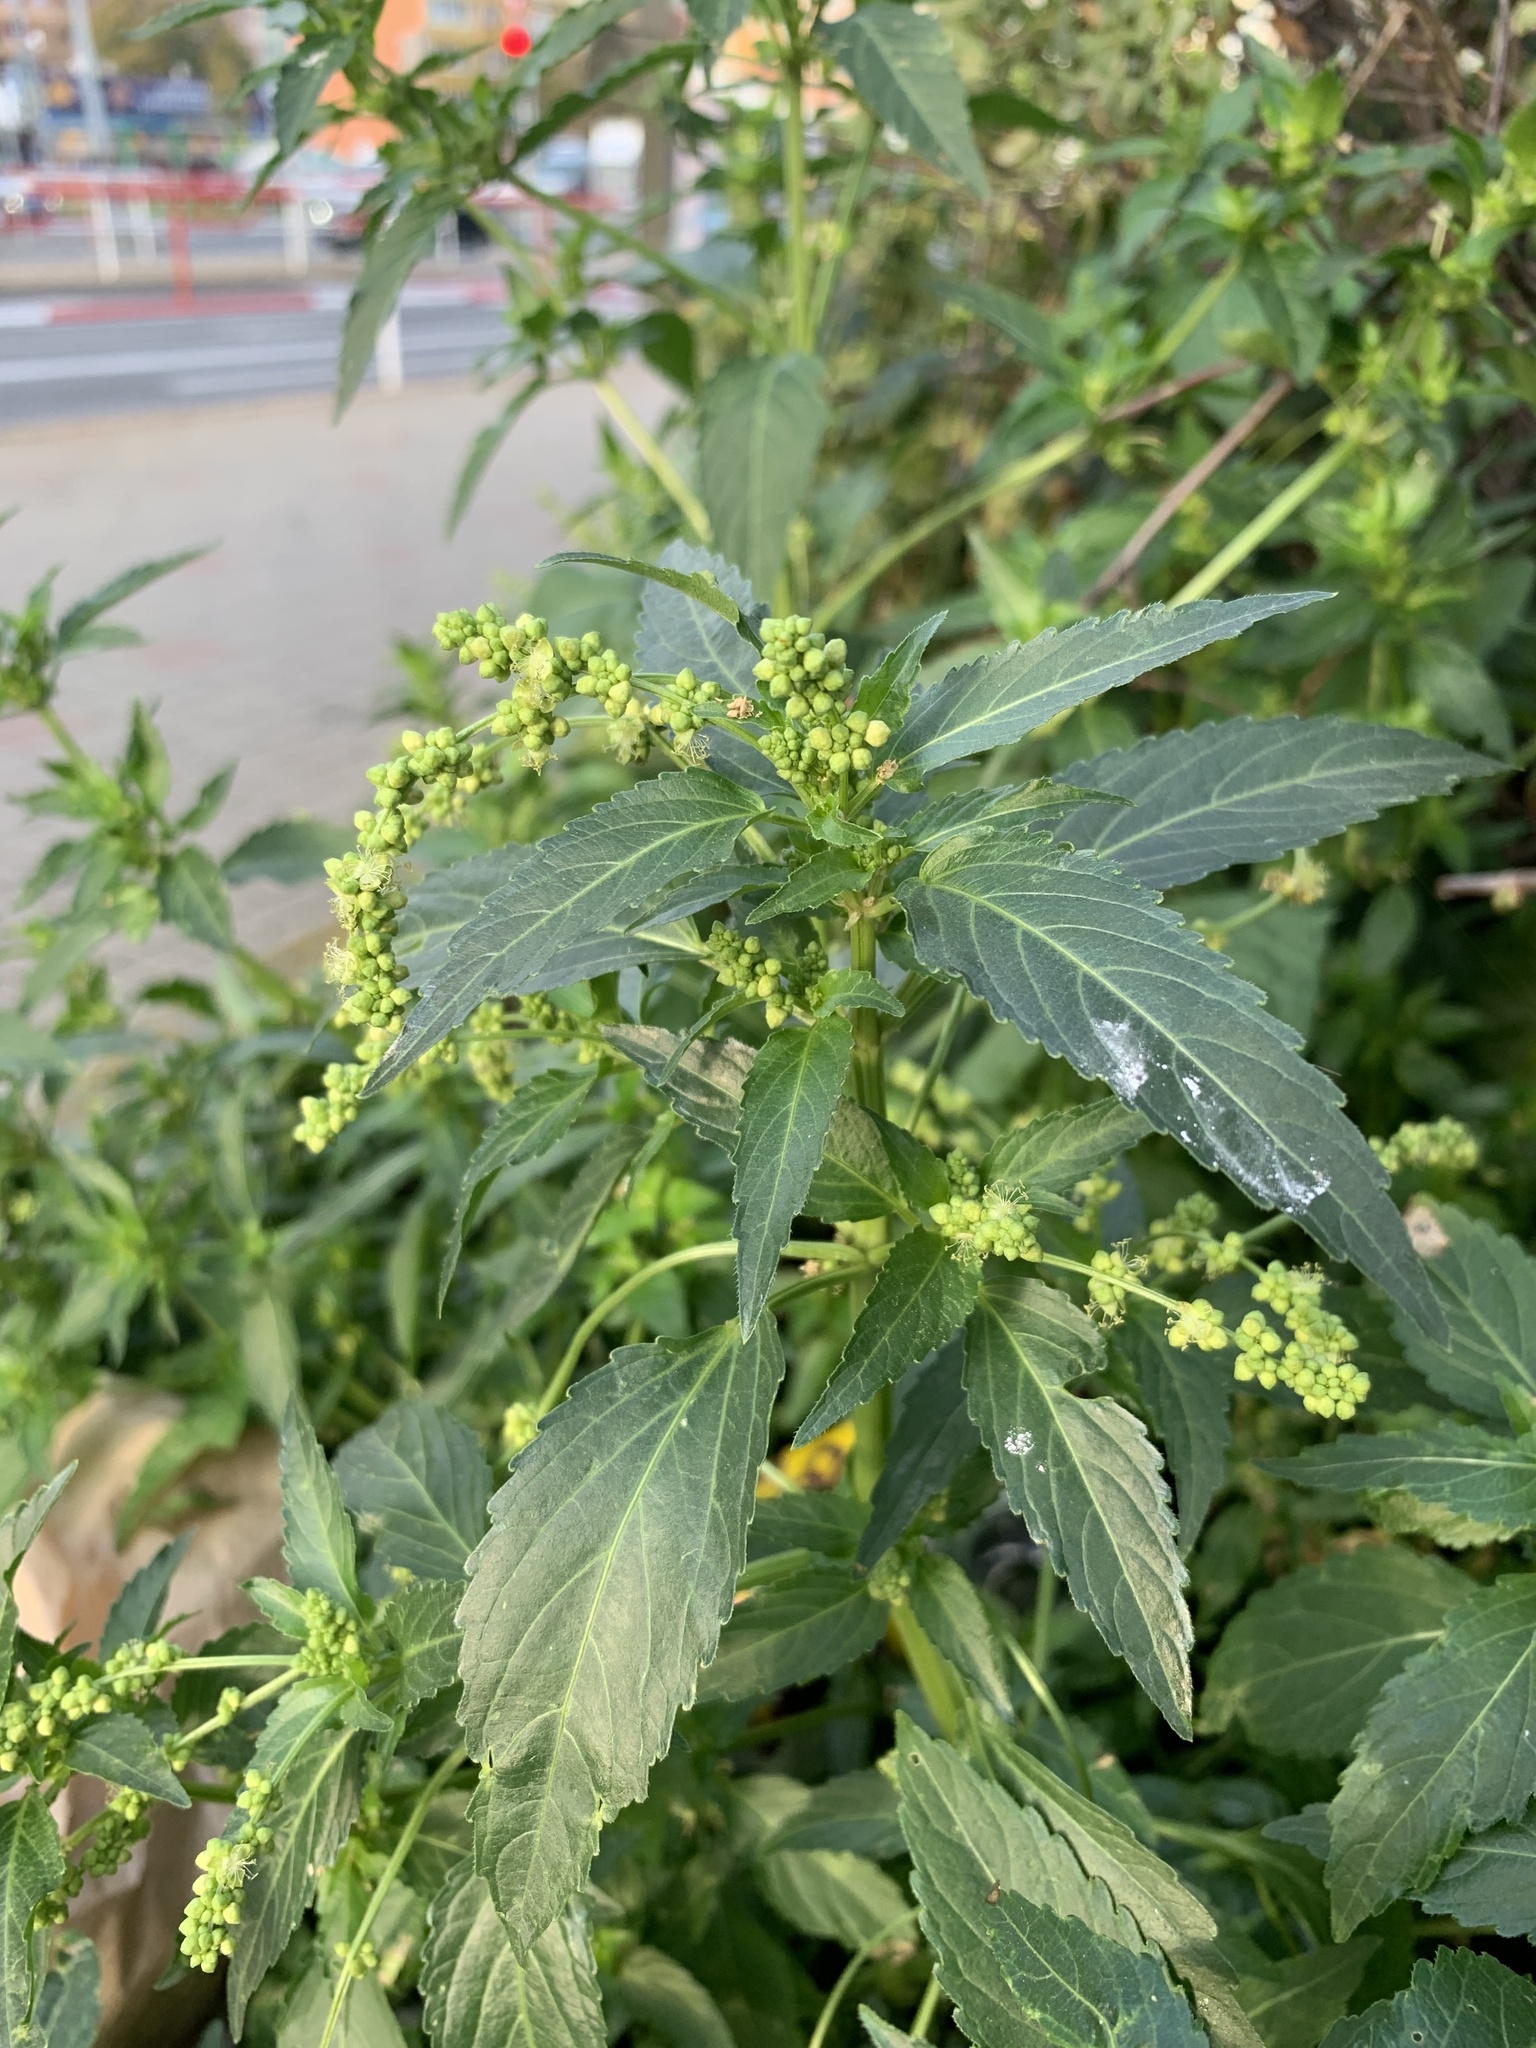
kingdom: Plantae
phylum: Tracheophyta
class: Magnoliopsida
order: Malpighiales
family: Euphorbiaceae
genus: Mercurialis
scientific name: Mercurialis annua
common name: Annual mercury
